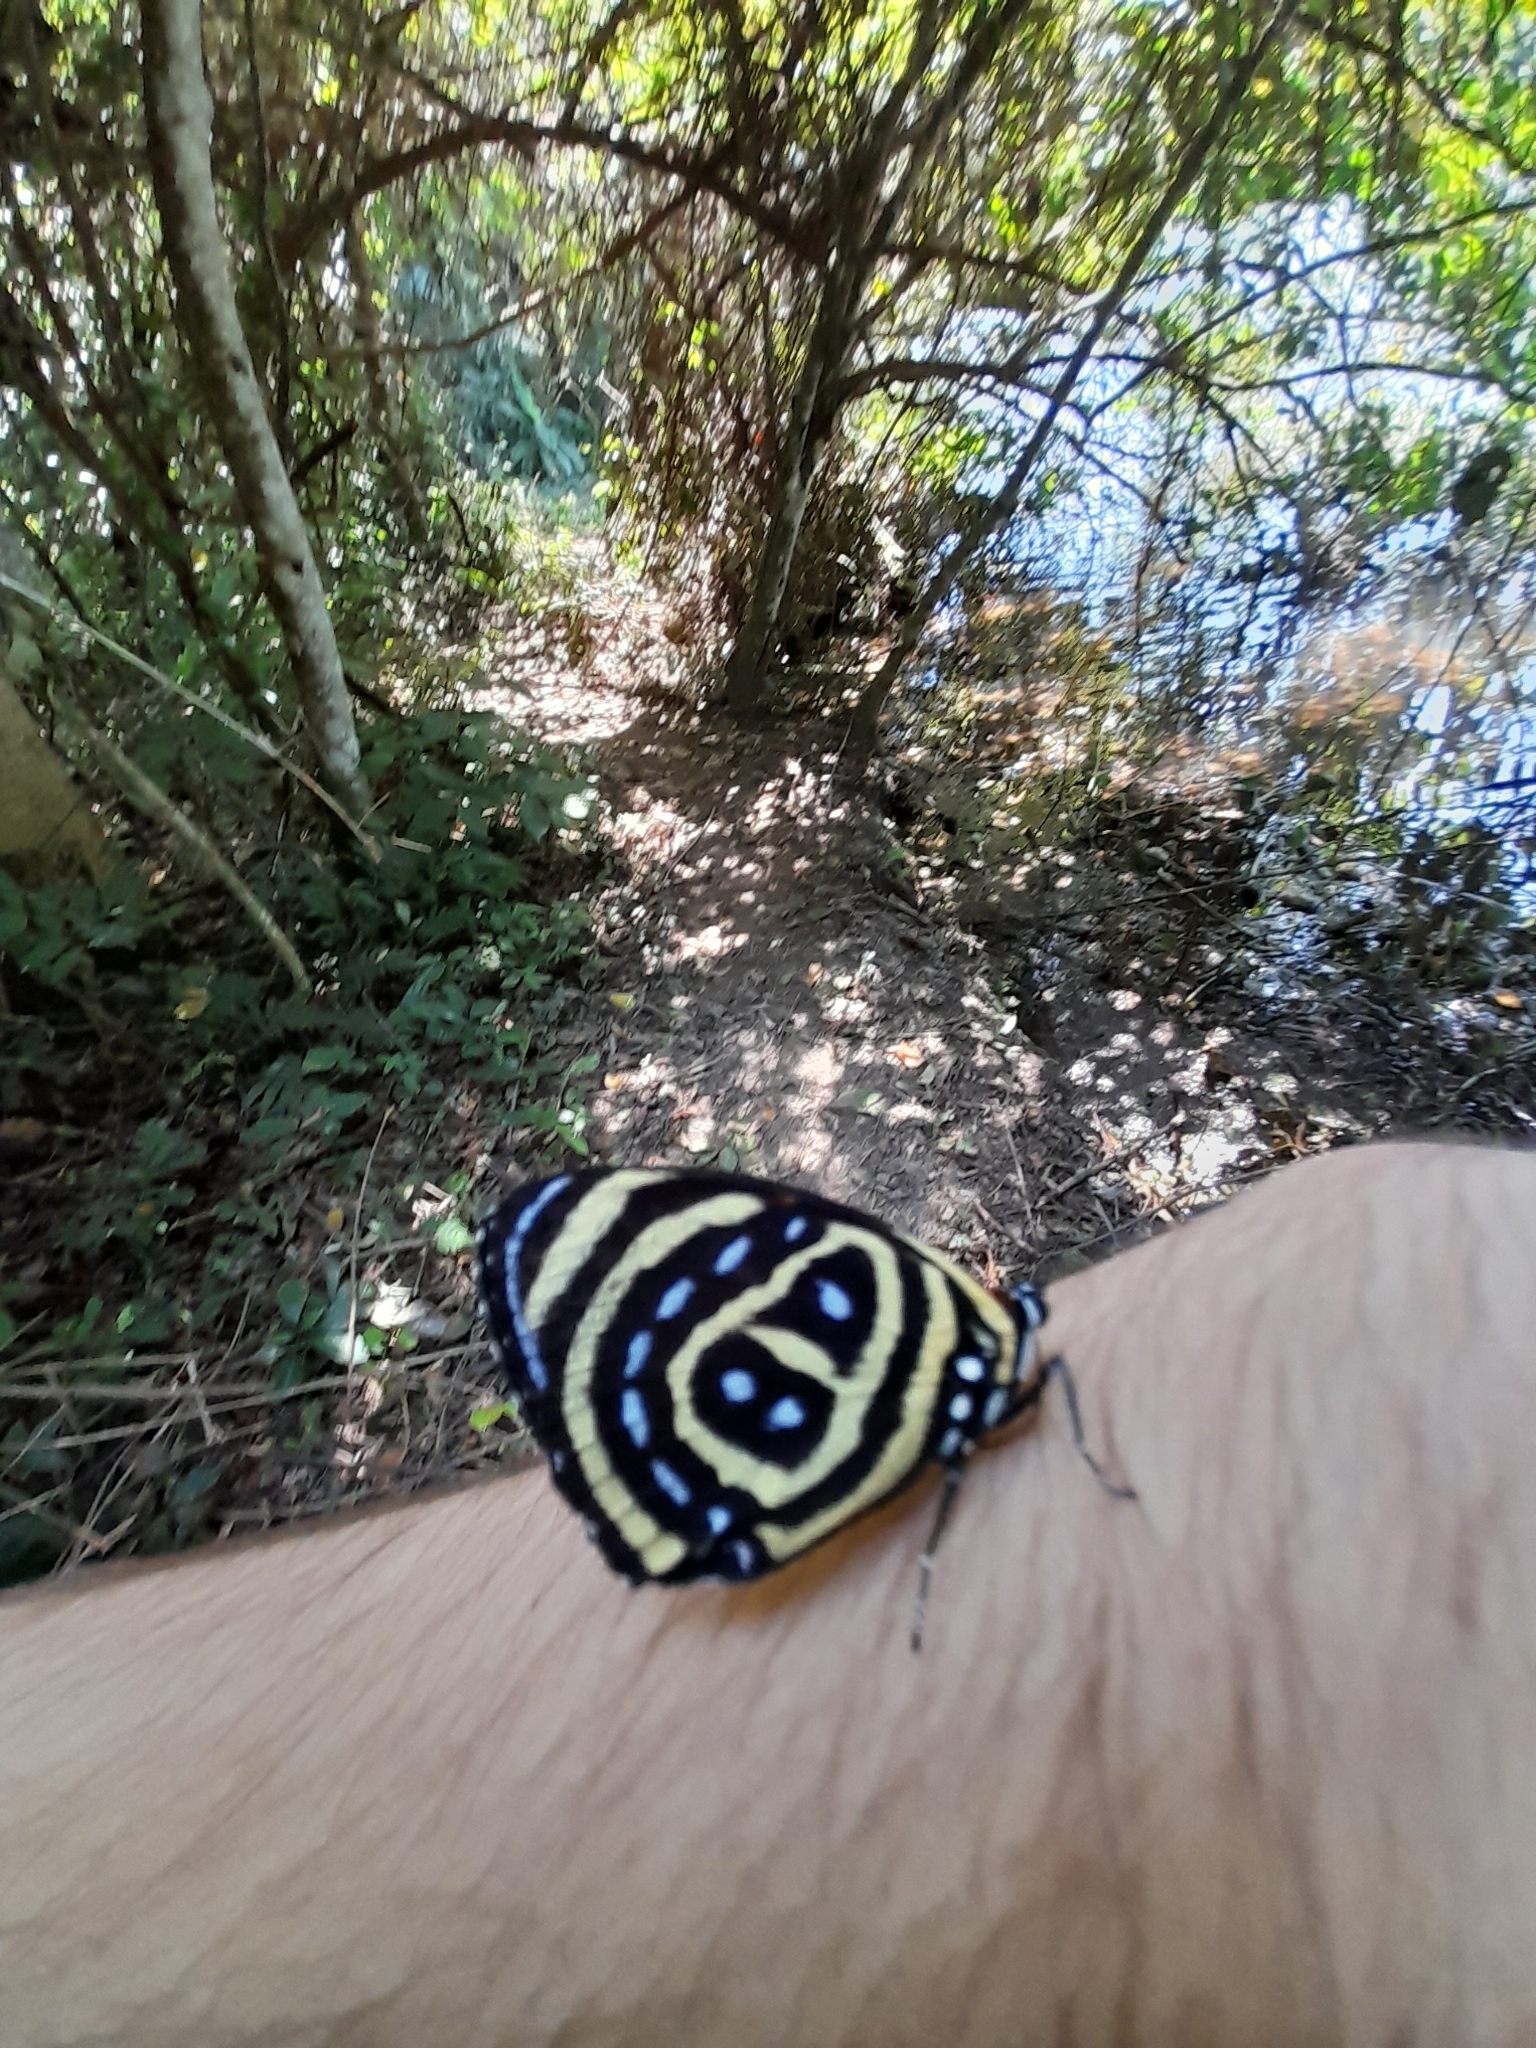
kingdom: Animalia
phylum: Arthropoda
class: Insecta
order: Lepidoptera
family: Nymphalidae
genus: Catagramma
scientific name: Catagramma astarte
